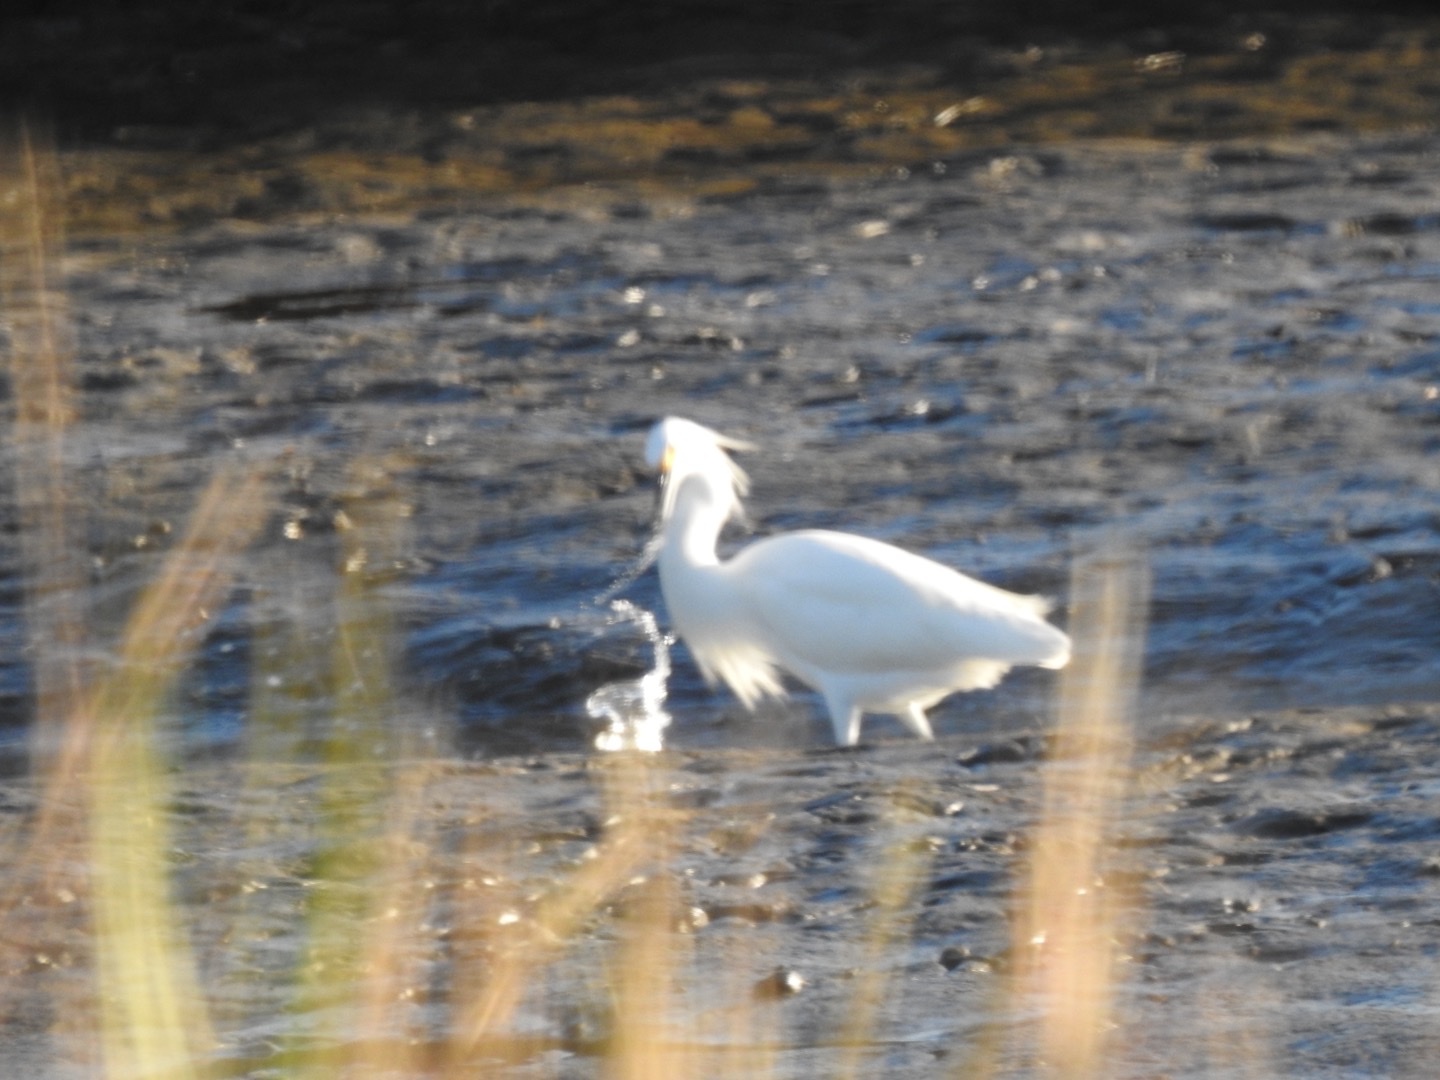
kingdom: Animalia
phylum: Chordata
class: Aves
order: Pelecaniformes
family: Ardeidae
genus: Egretta
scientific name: Egretta thula
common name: Snowy egret
